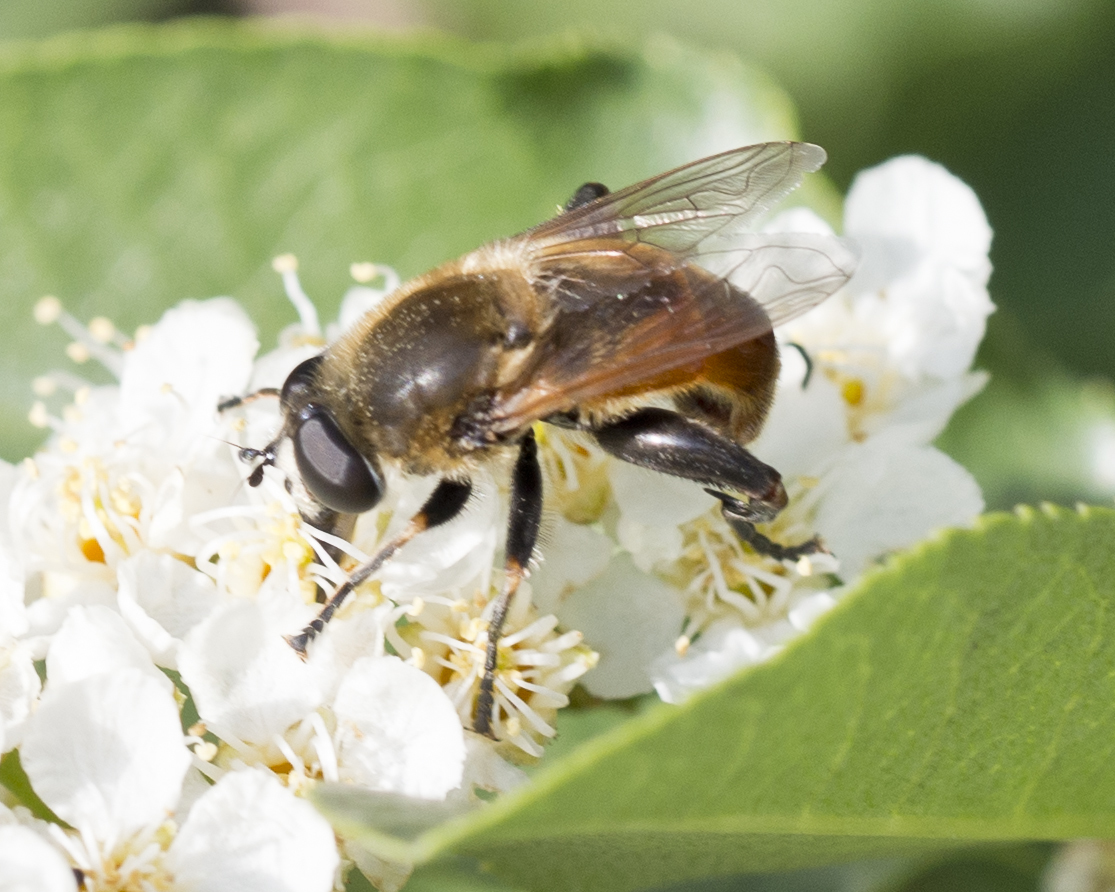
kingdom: Animalia
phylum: Arthropoda
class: Insecta
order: Diptera
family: Syrphidae
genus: Polydontomyia
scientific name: Polydontomyia curvipes
